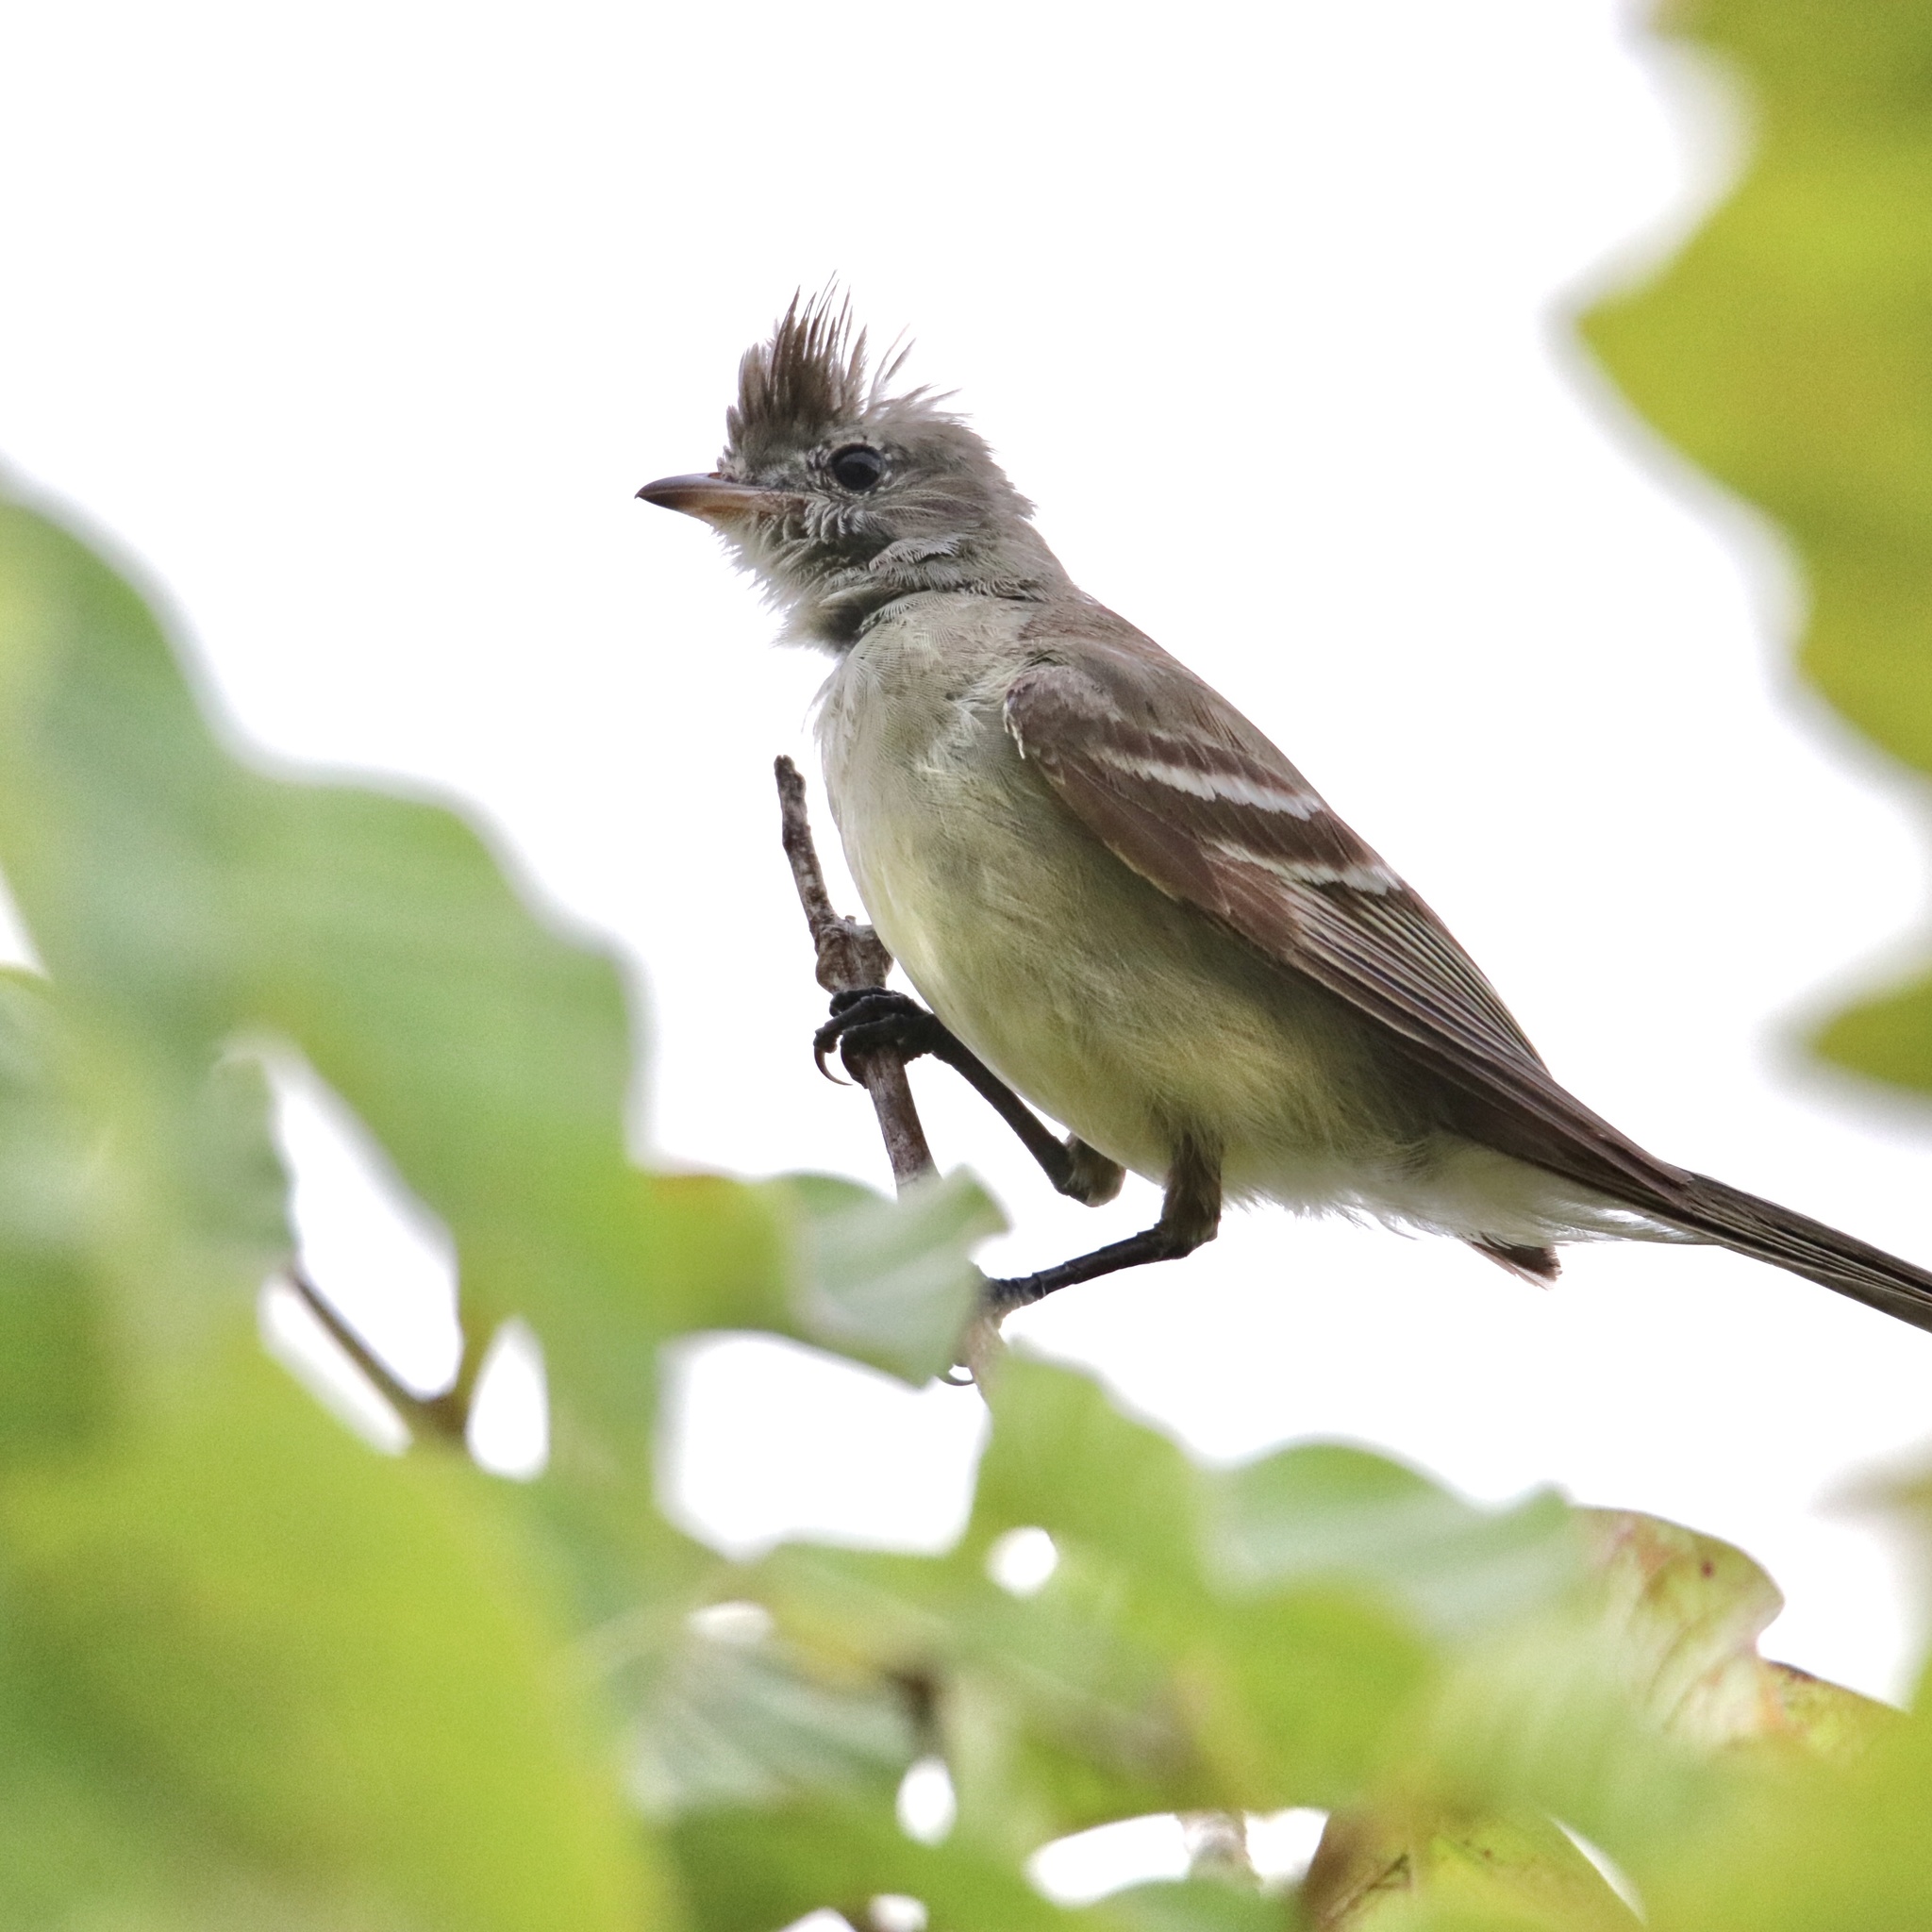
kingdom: Animalia
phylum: Chordata
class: Aves
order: Passeriformes
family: Tyrannidae
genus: Elaenia
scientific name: Elaenia flavogaster
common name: Yellow-bellied elaenia
